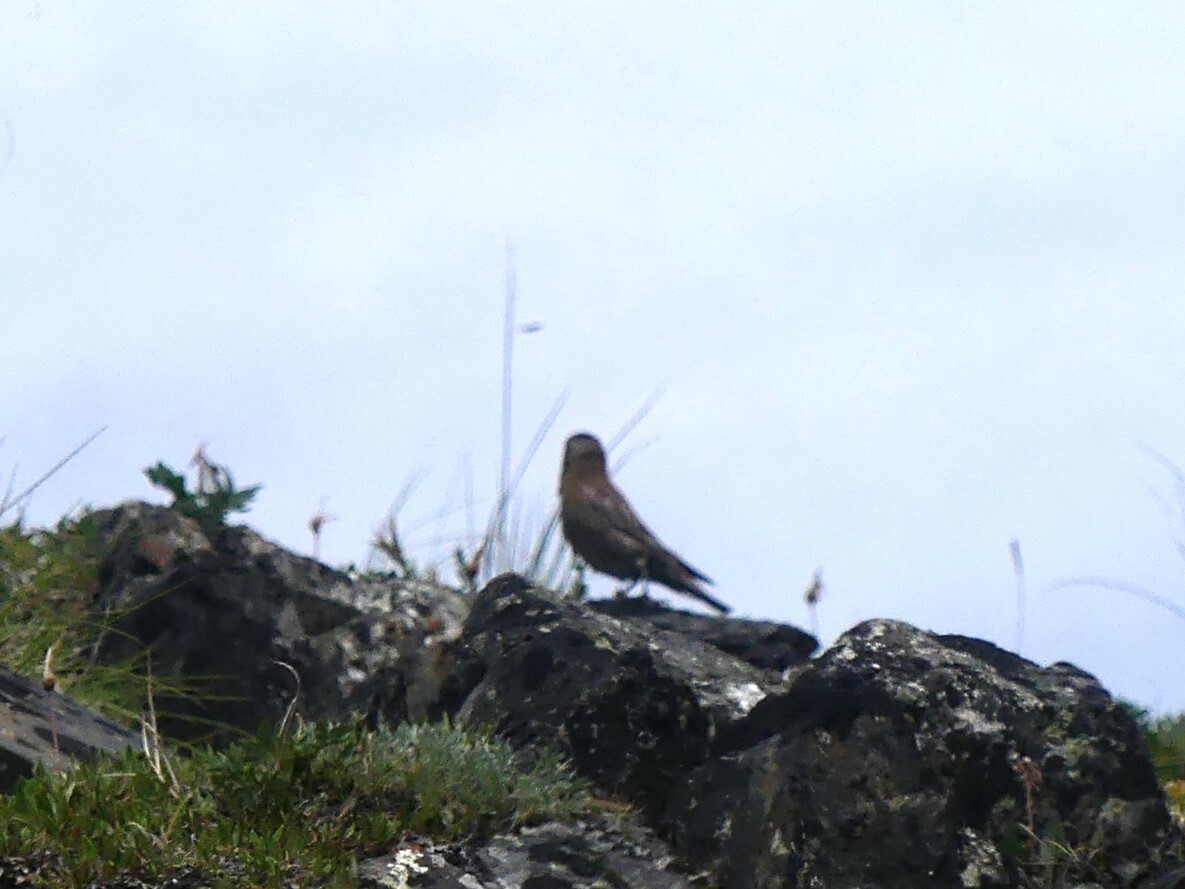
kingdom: Animalia
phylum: Chordata
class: Aves
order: Passeriformes
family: Fringillidae
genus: Leucosticte
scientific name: Leucosticte tephrocotis
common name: Gray-crowned rosy-finch
